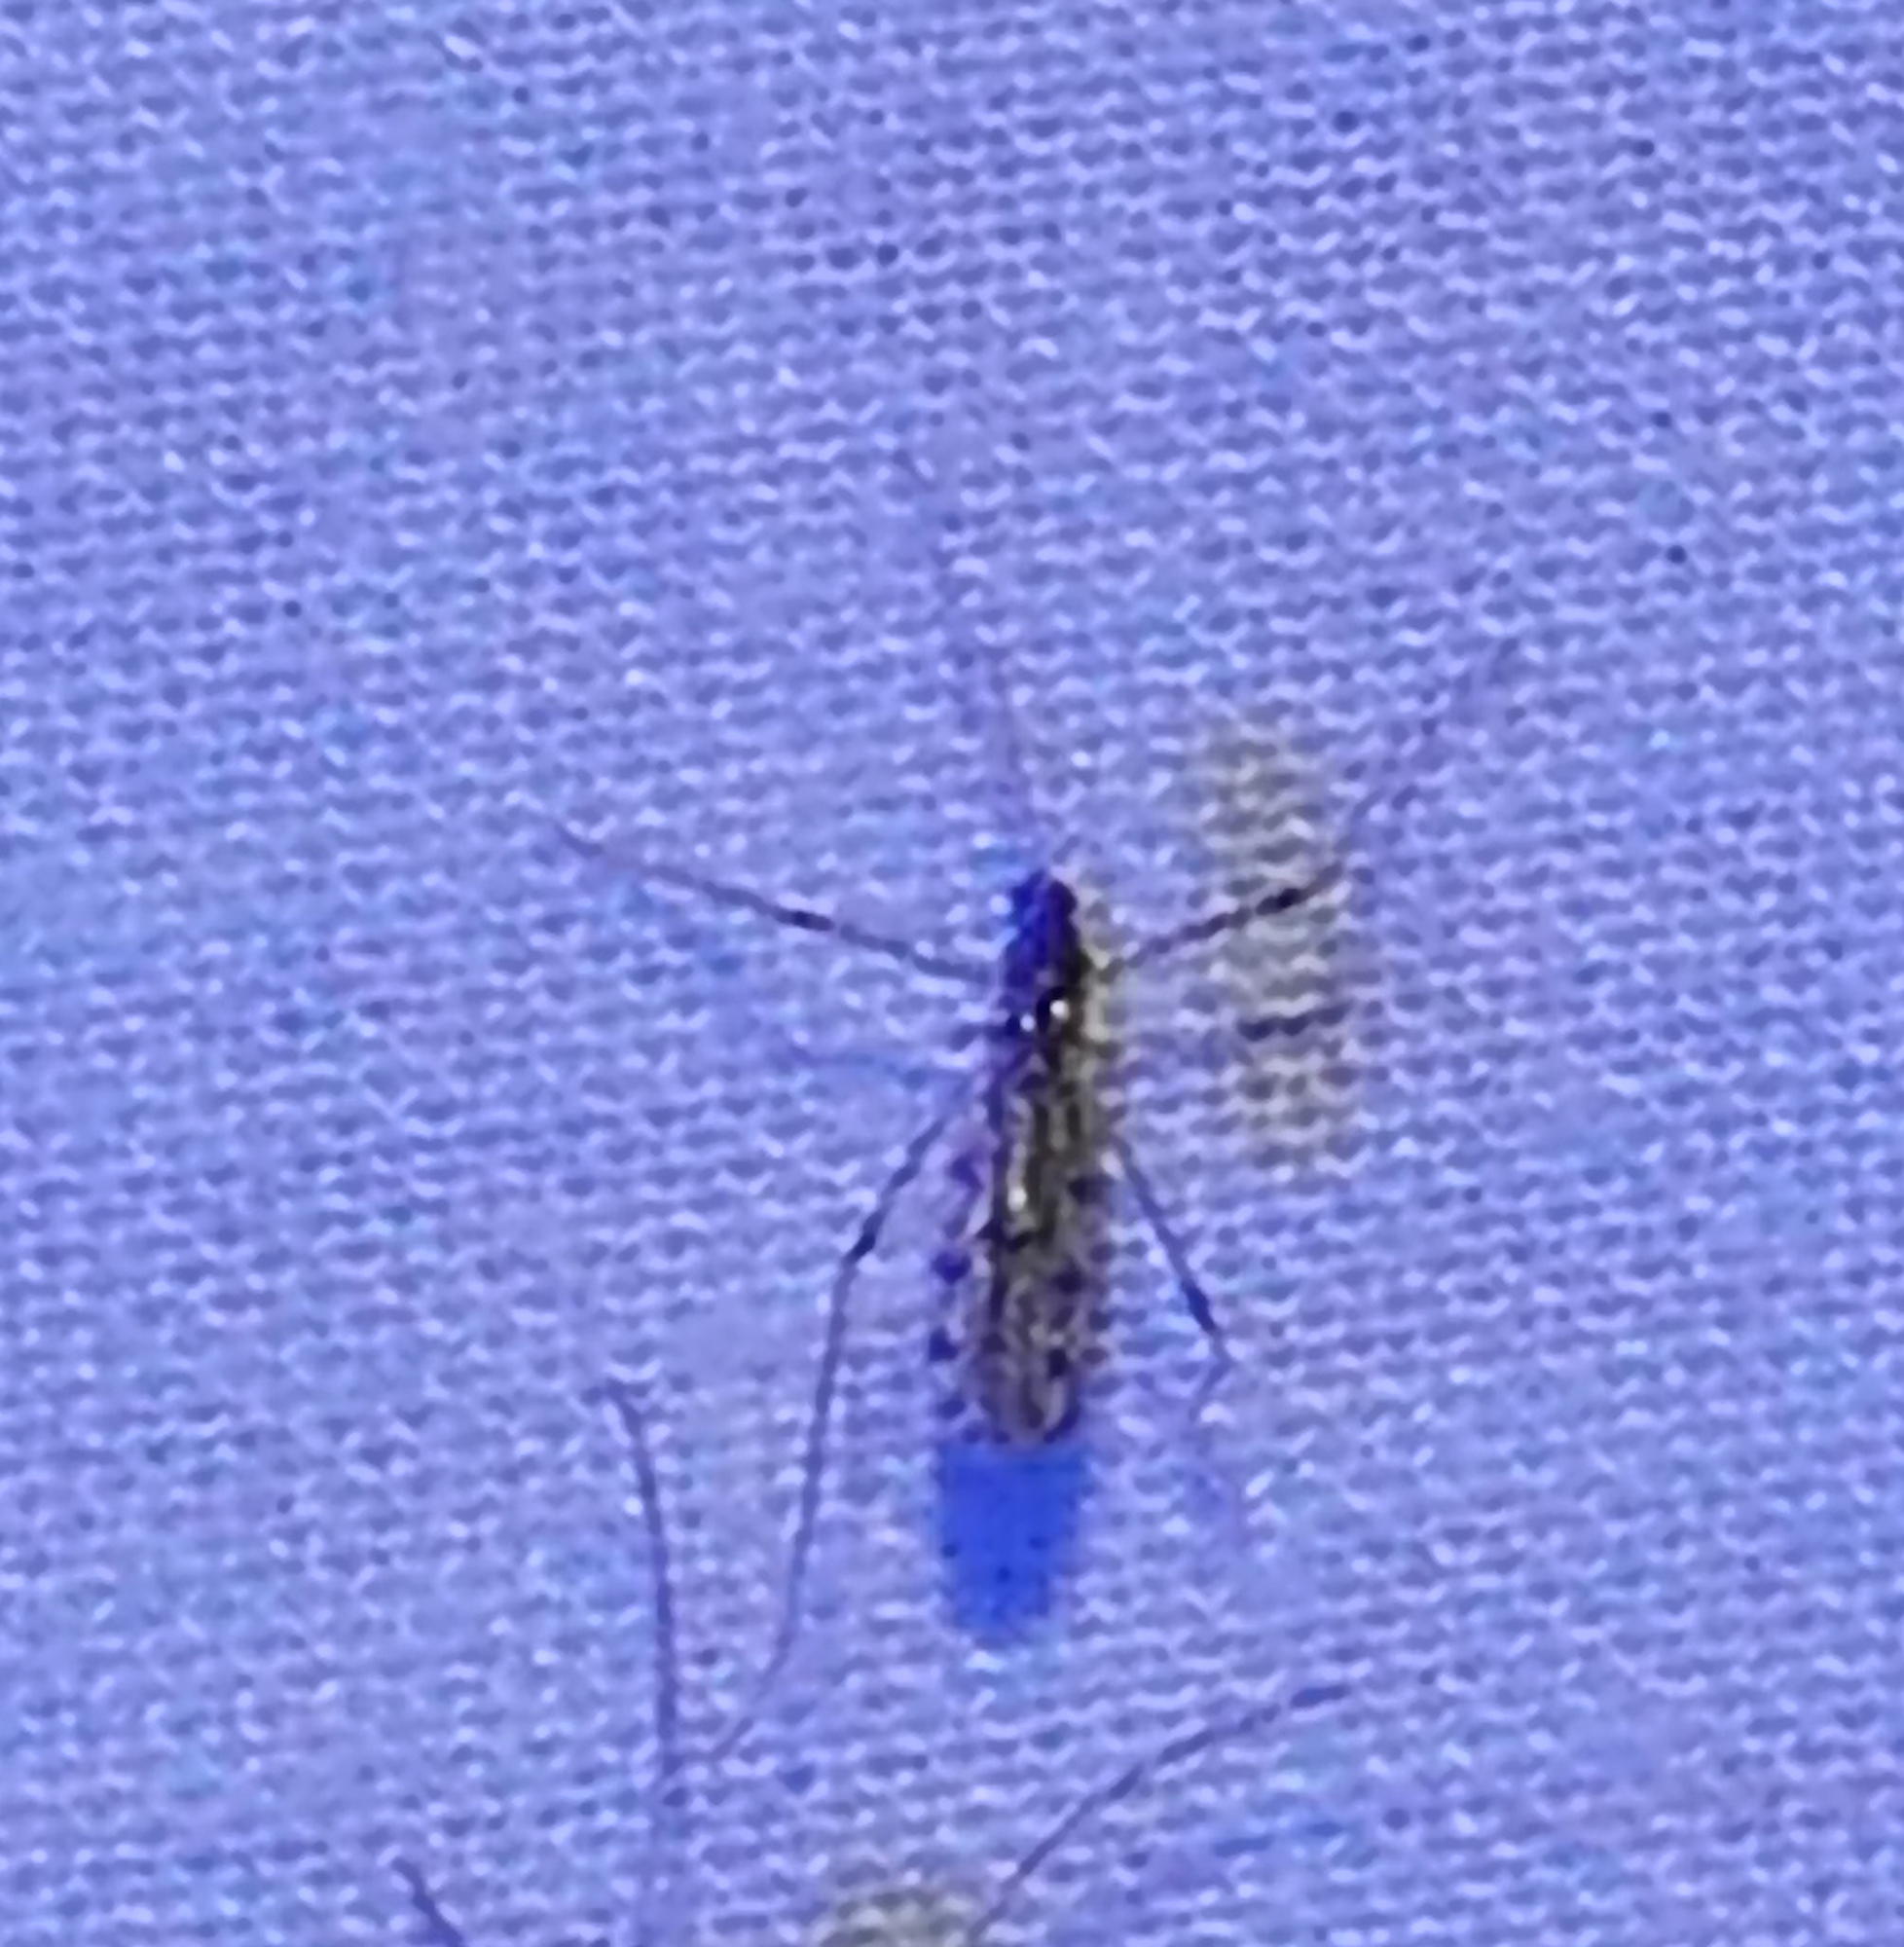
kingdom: Animalia
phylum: Arthropoda
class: Insecta
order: Diptera
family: Limoniidae
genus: Erioptera
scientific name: Erioptera
